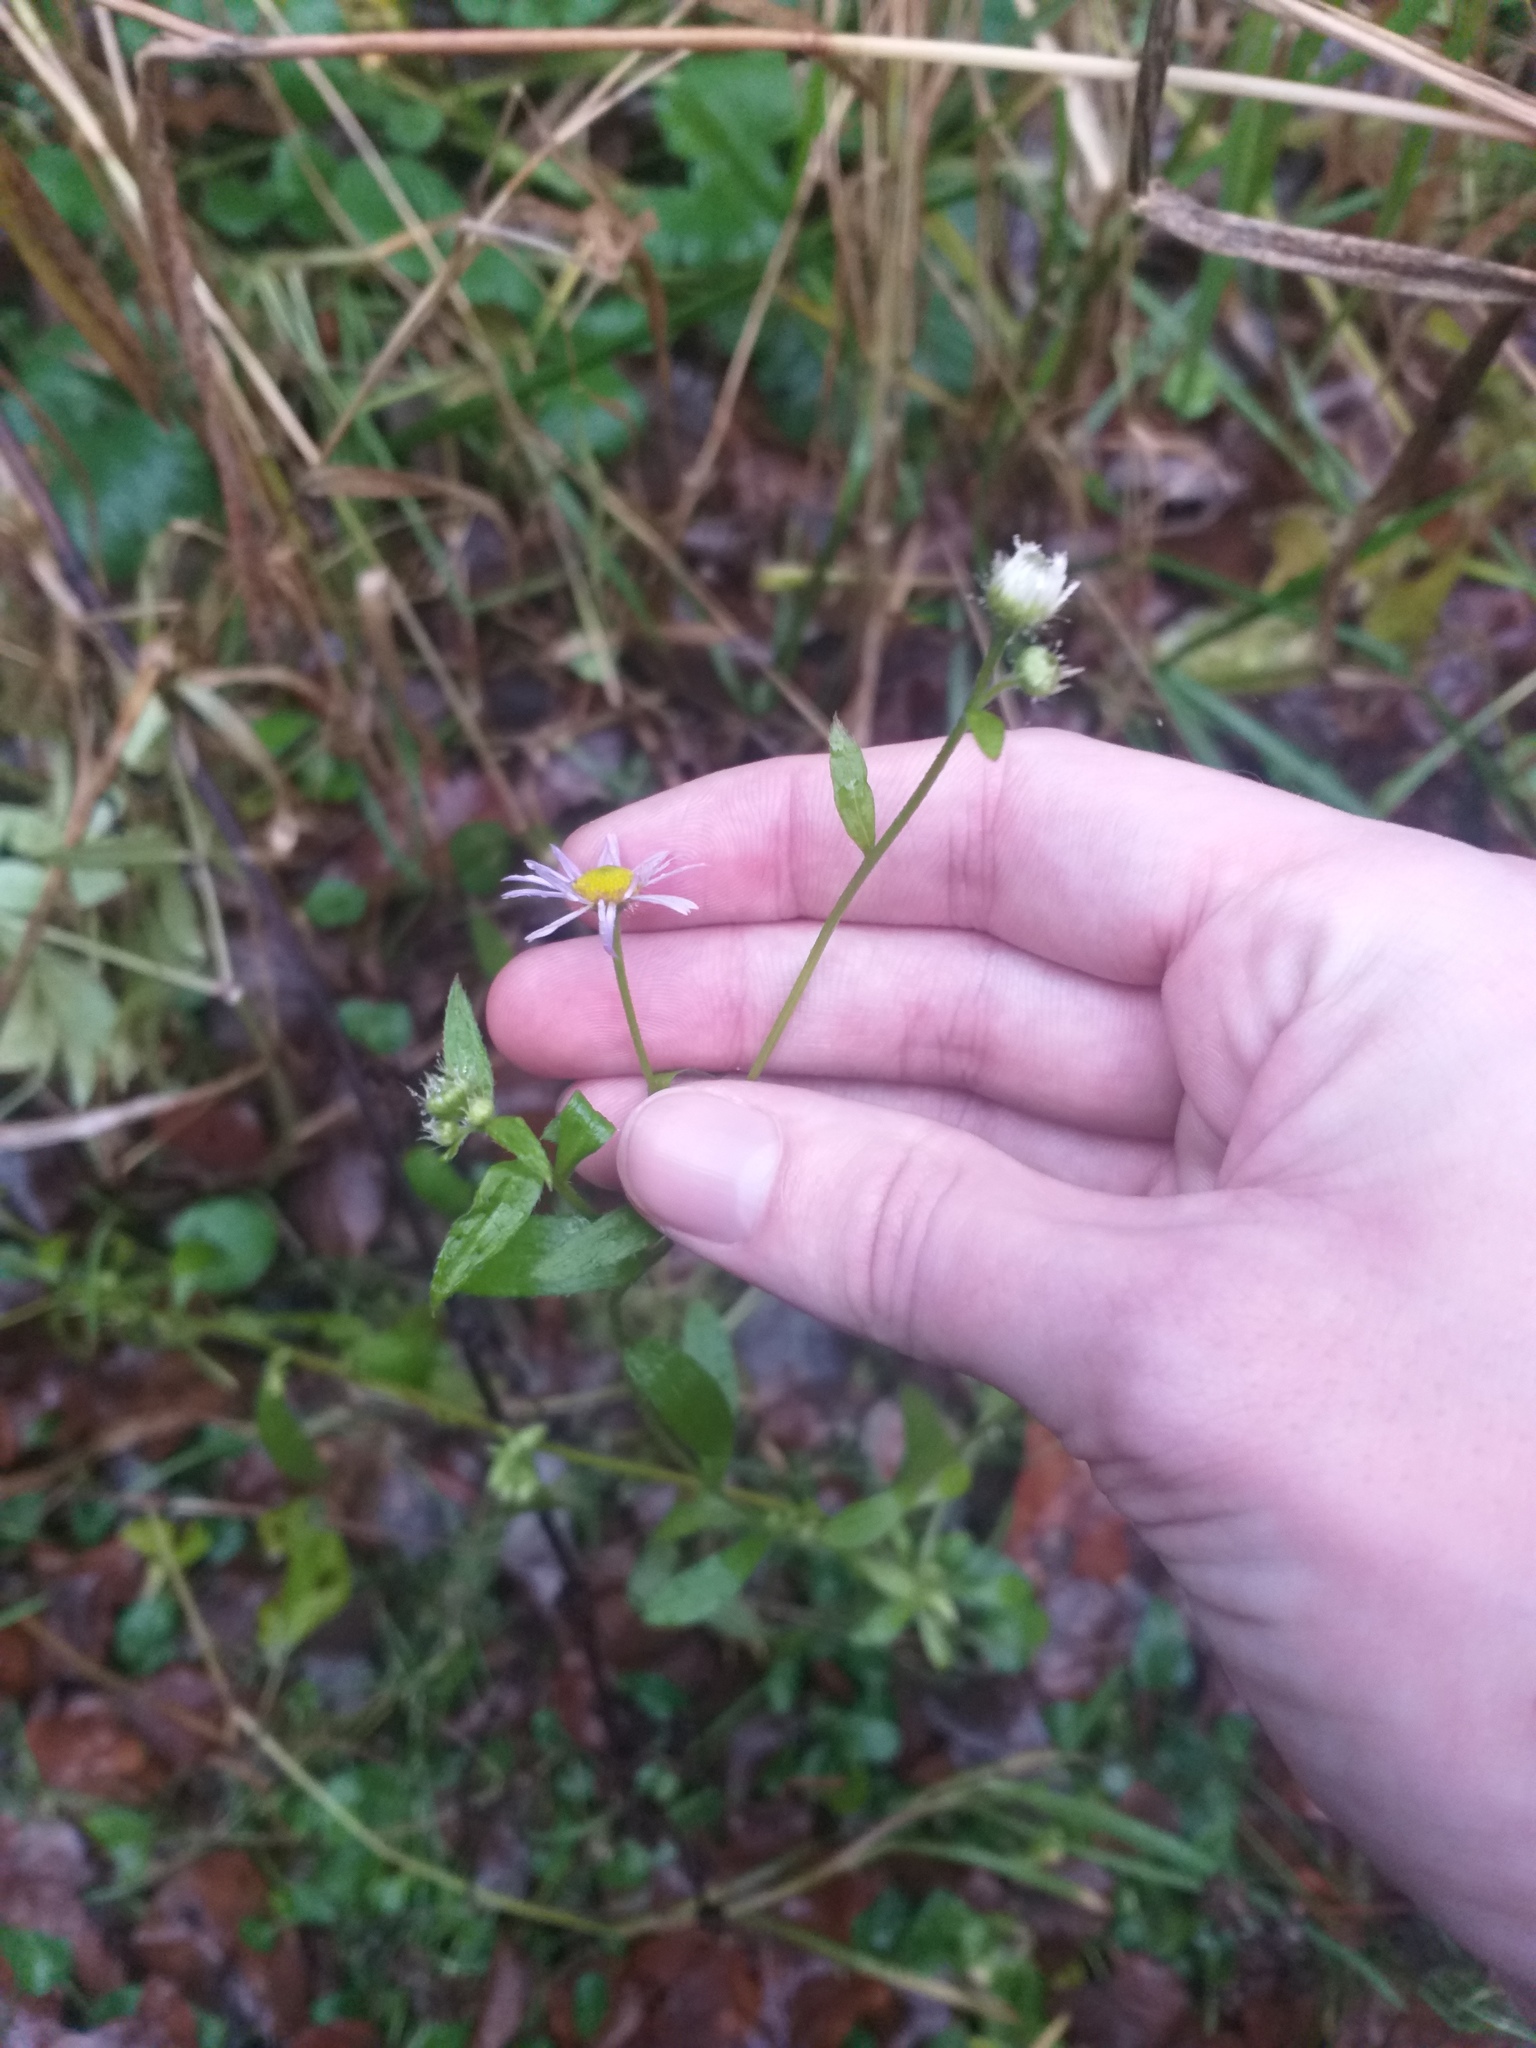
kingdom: Plantae
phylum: Tracheophyta
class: Magnoliopsida
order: Asterales
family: Asteraceae
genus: Erigeron
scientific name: Erigeron annuus
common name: Tall fleabane
